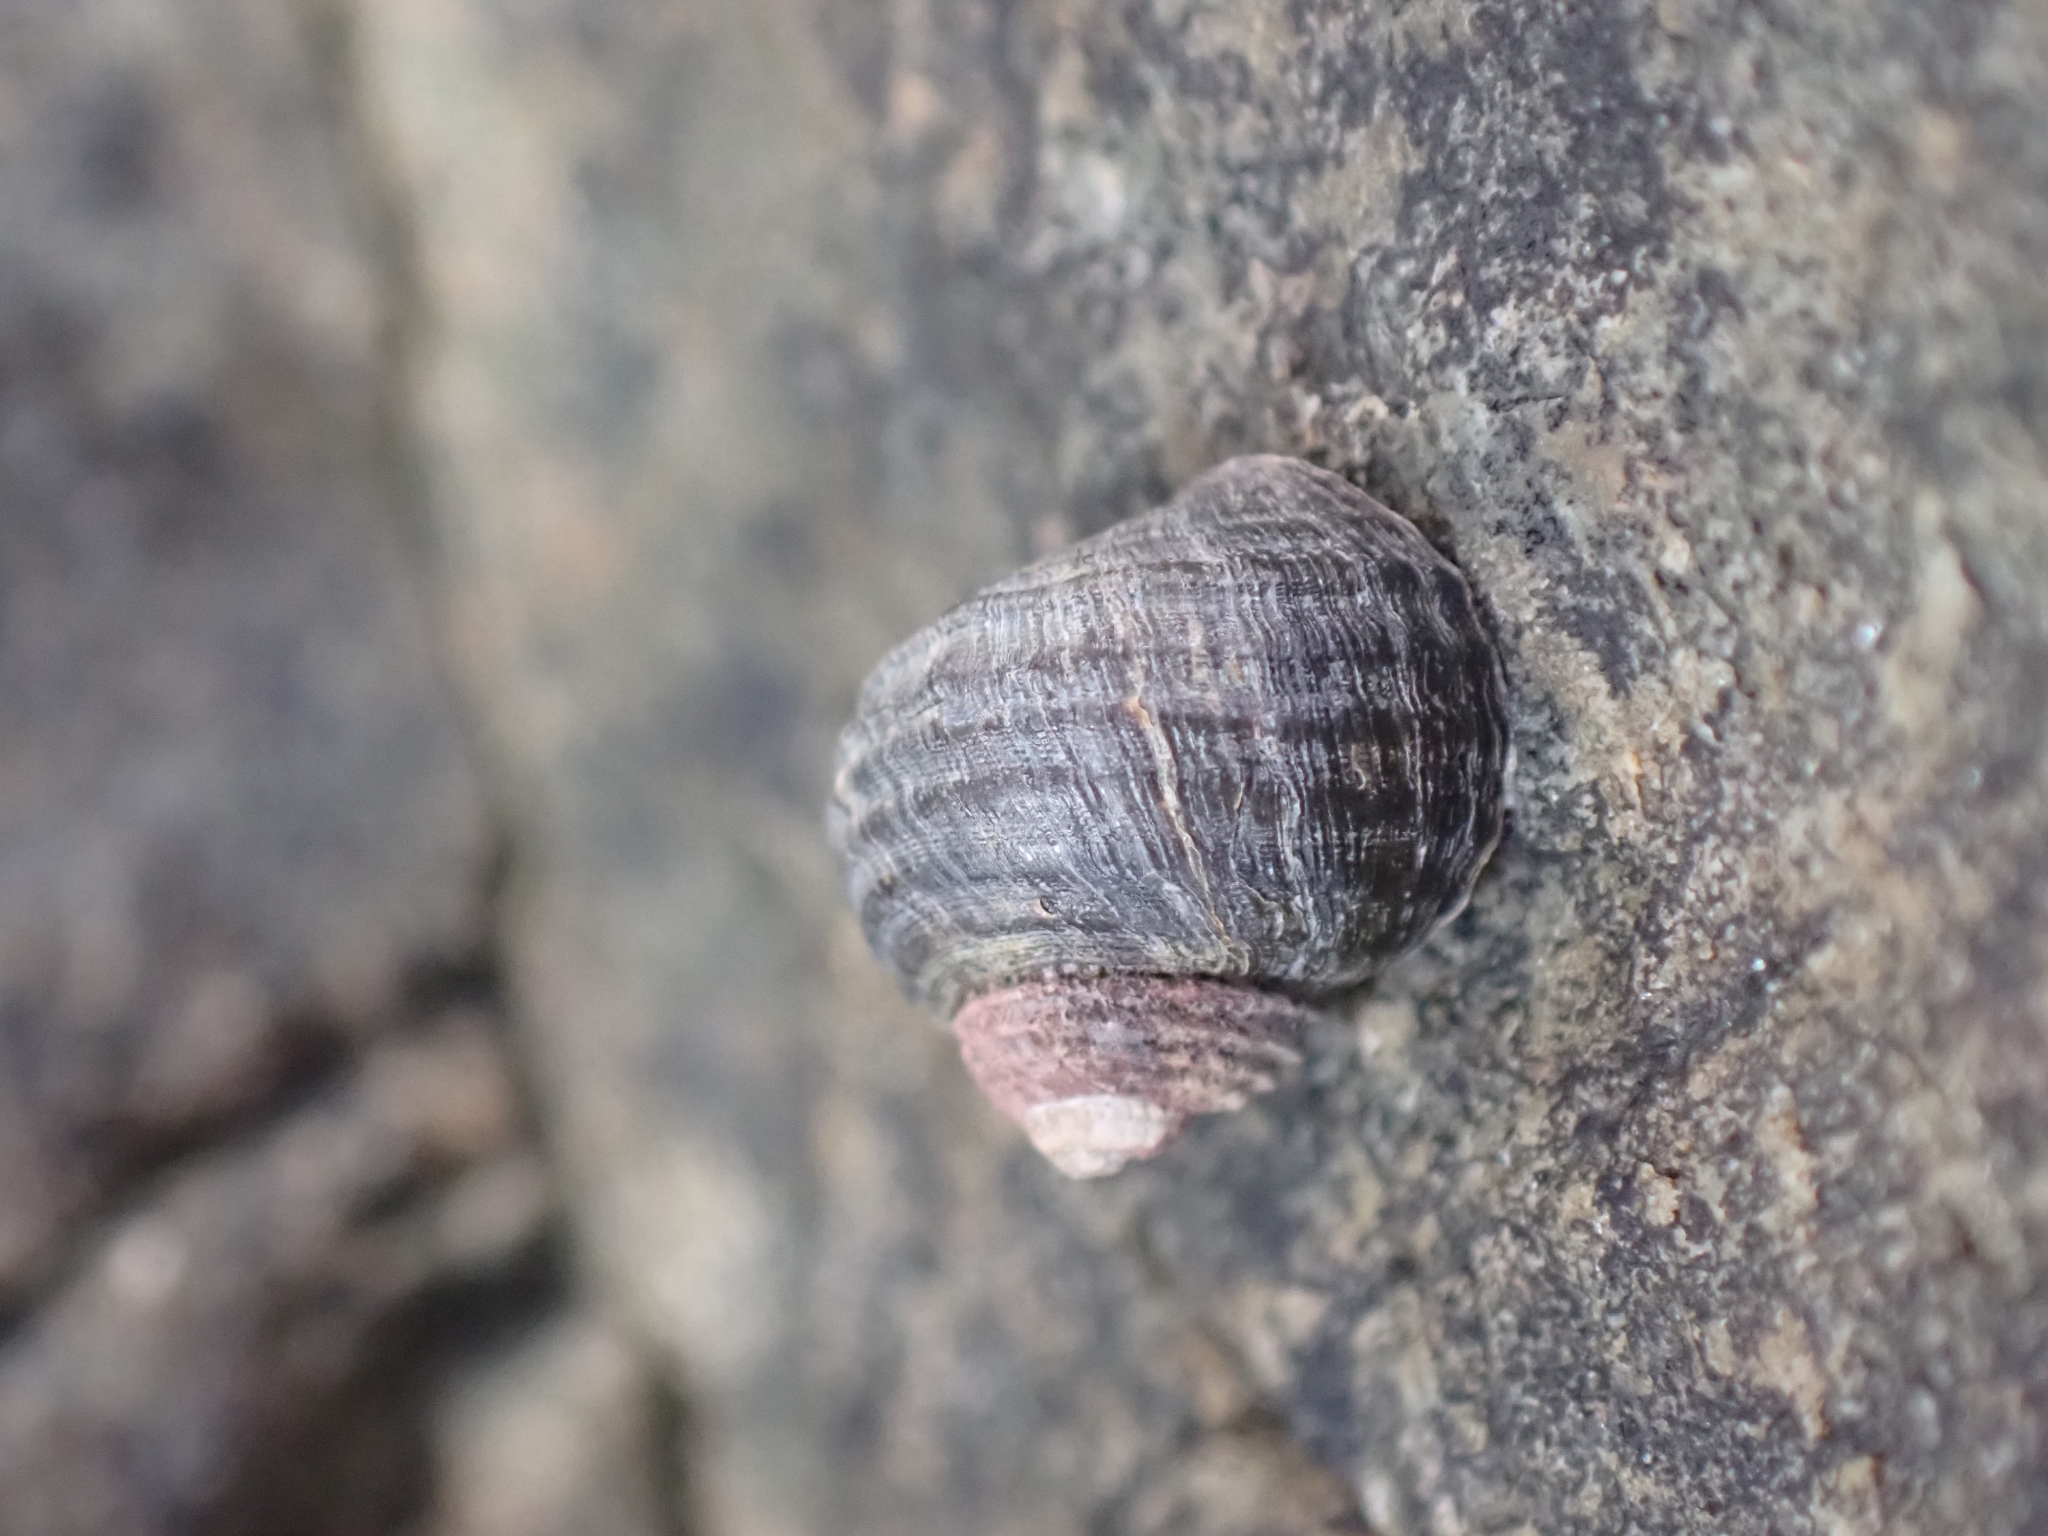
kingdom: Animalia
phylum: Mollusca
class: Gastropoda
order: Littorinimorpha
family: Littorinidae
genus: Littorina
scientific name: Littorina sitkana
